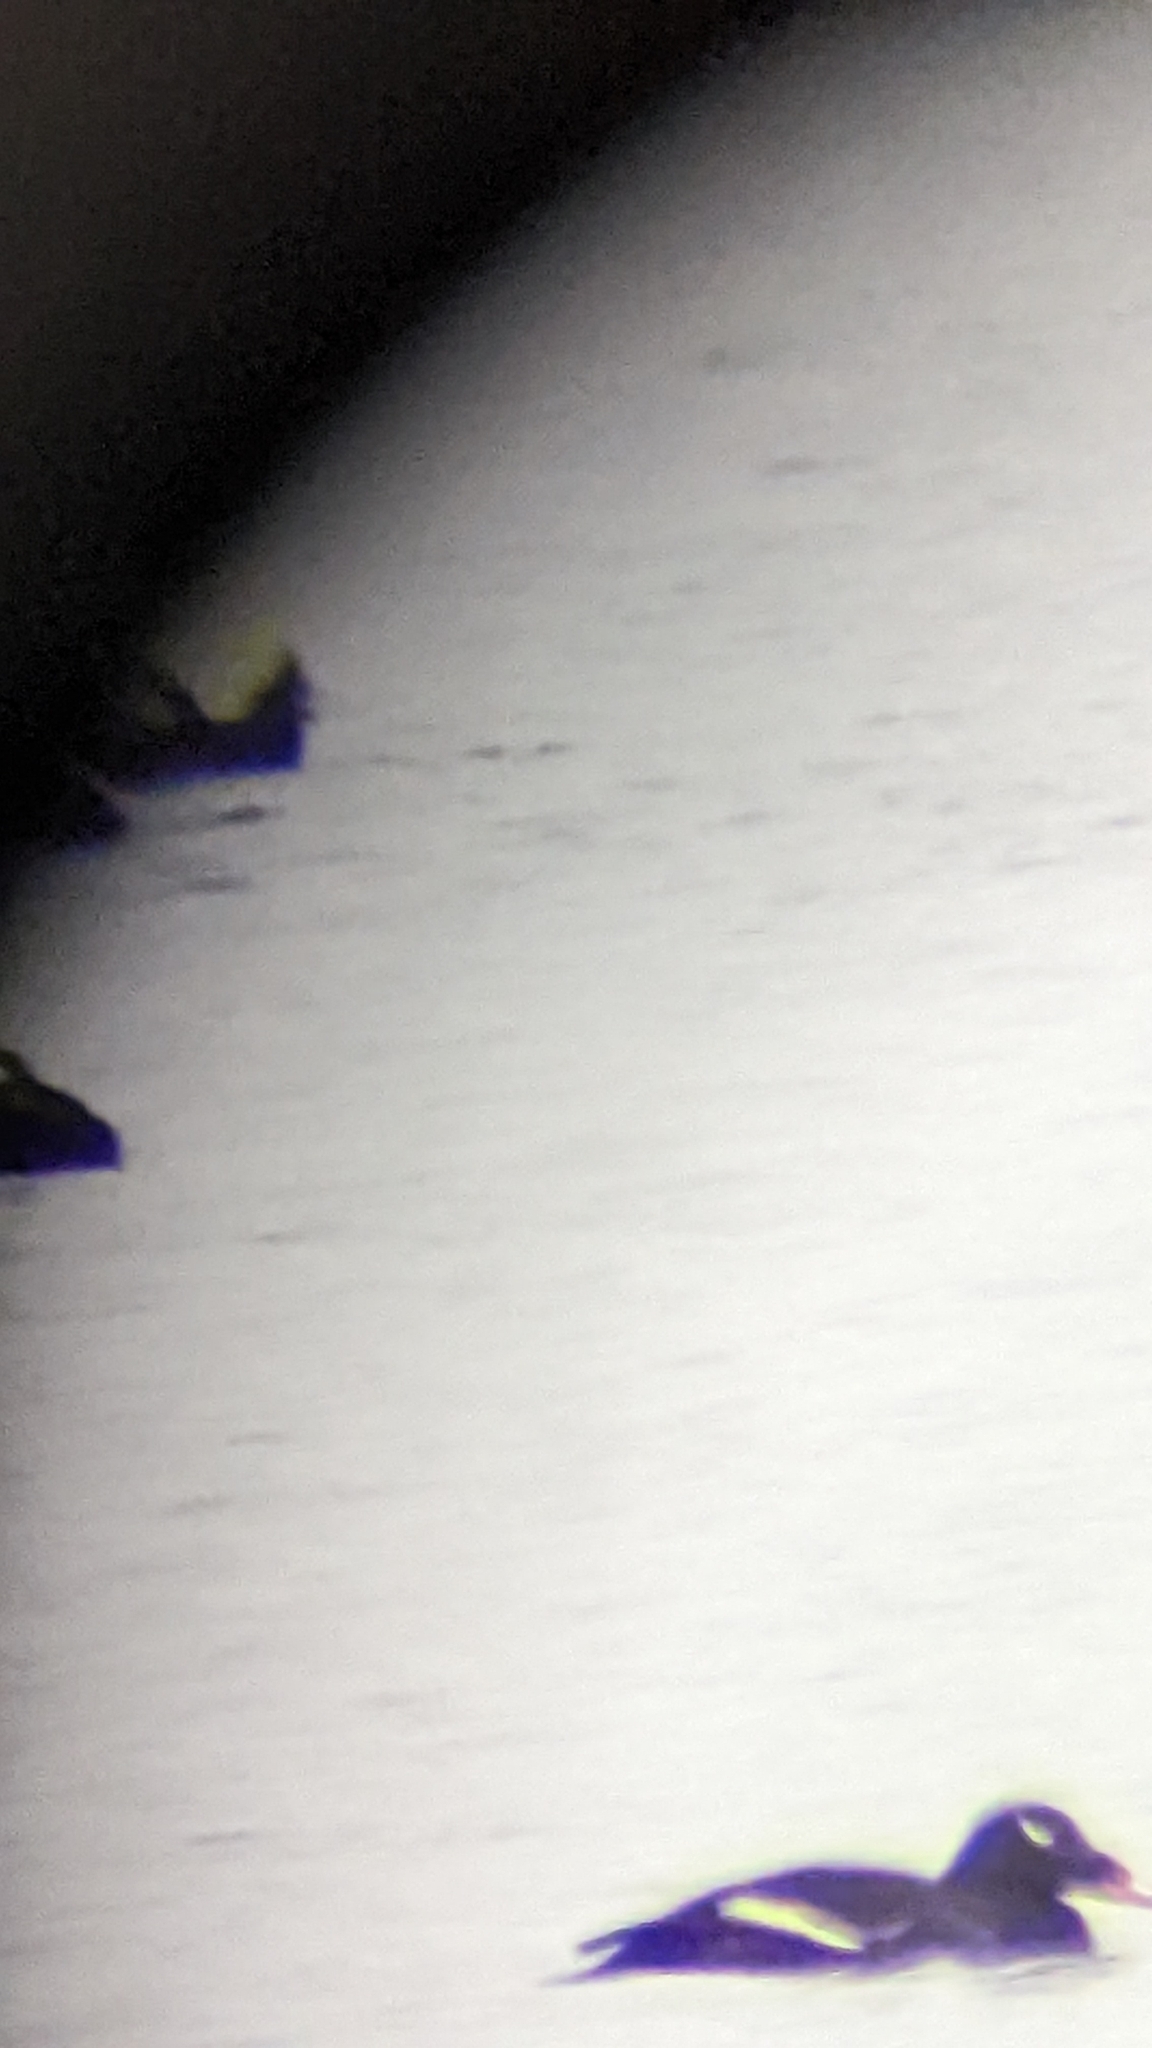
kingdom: Animalia
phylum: Chordata
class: Aves
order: Anseriformes
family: Anatidae
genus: Melanitta
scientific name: Melanitta deglandi
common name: White-winged scoter
